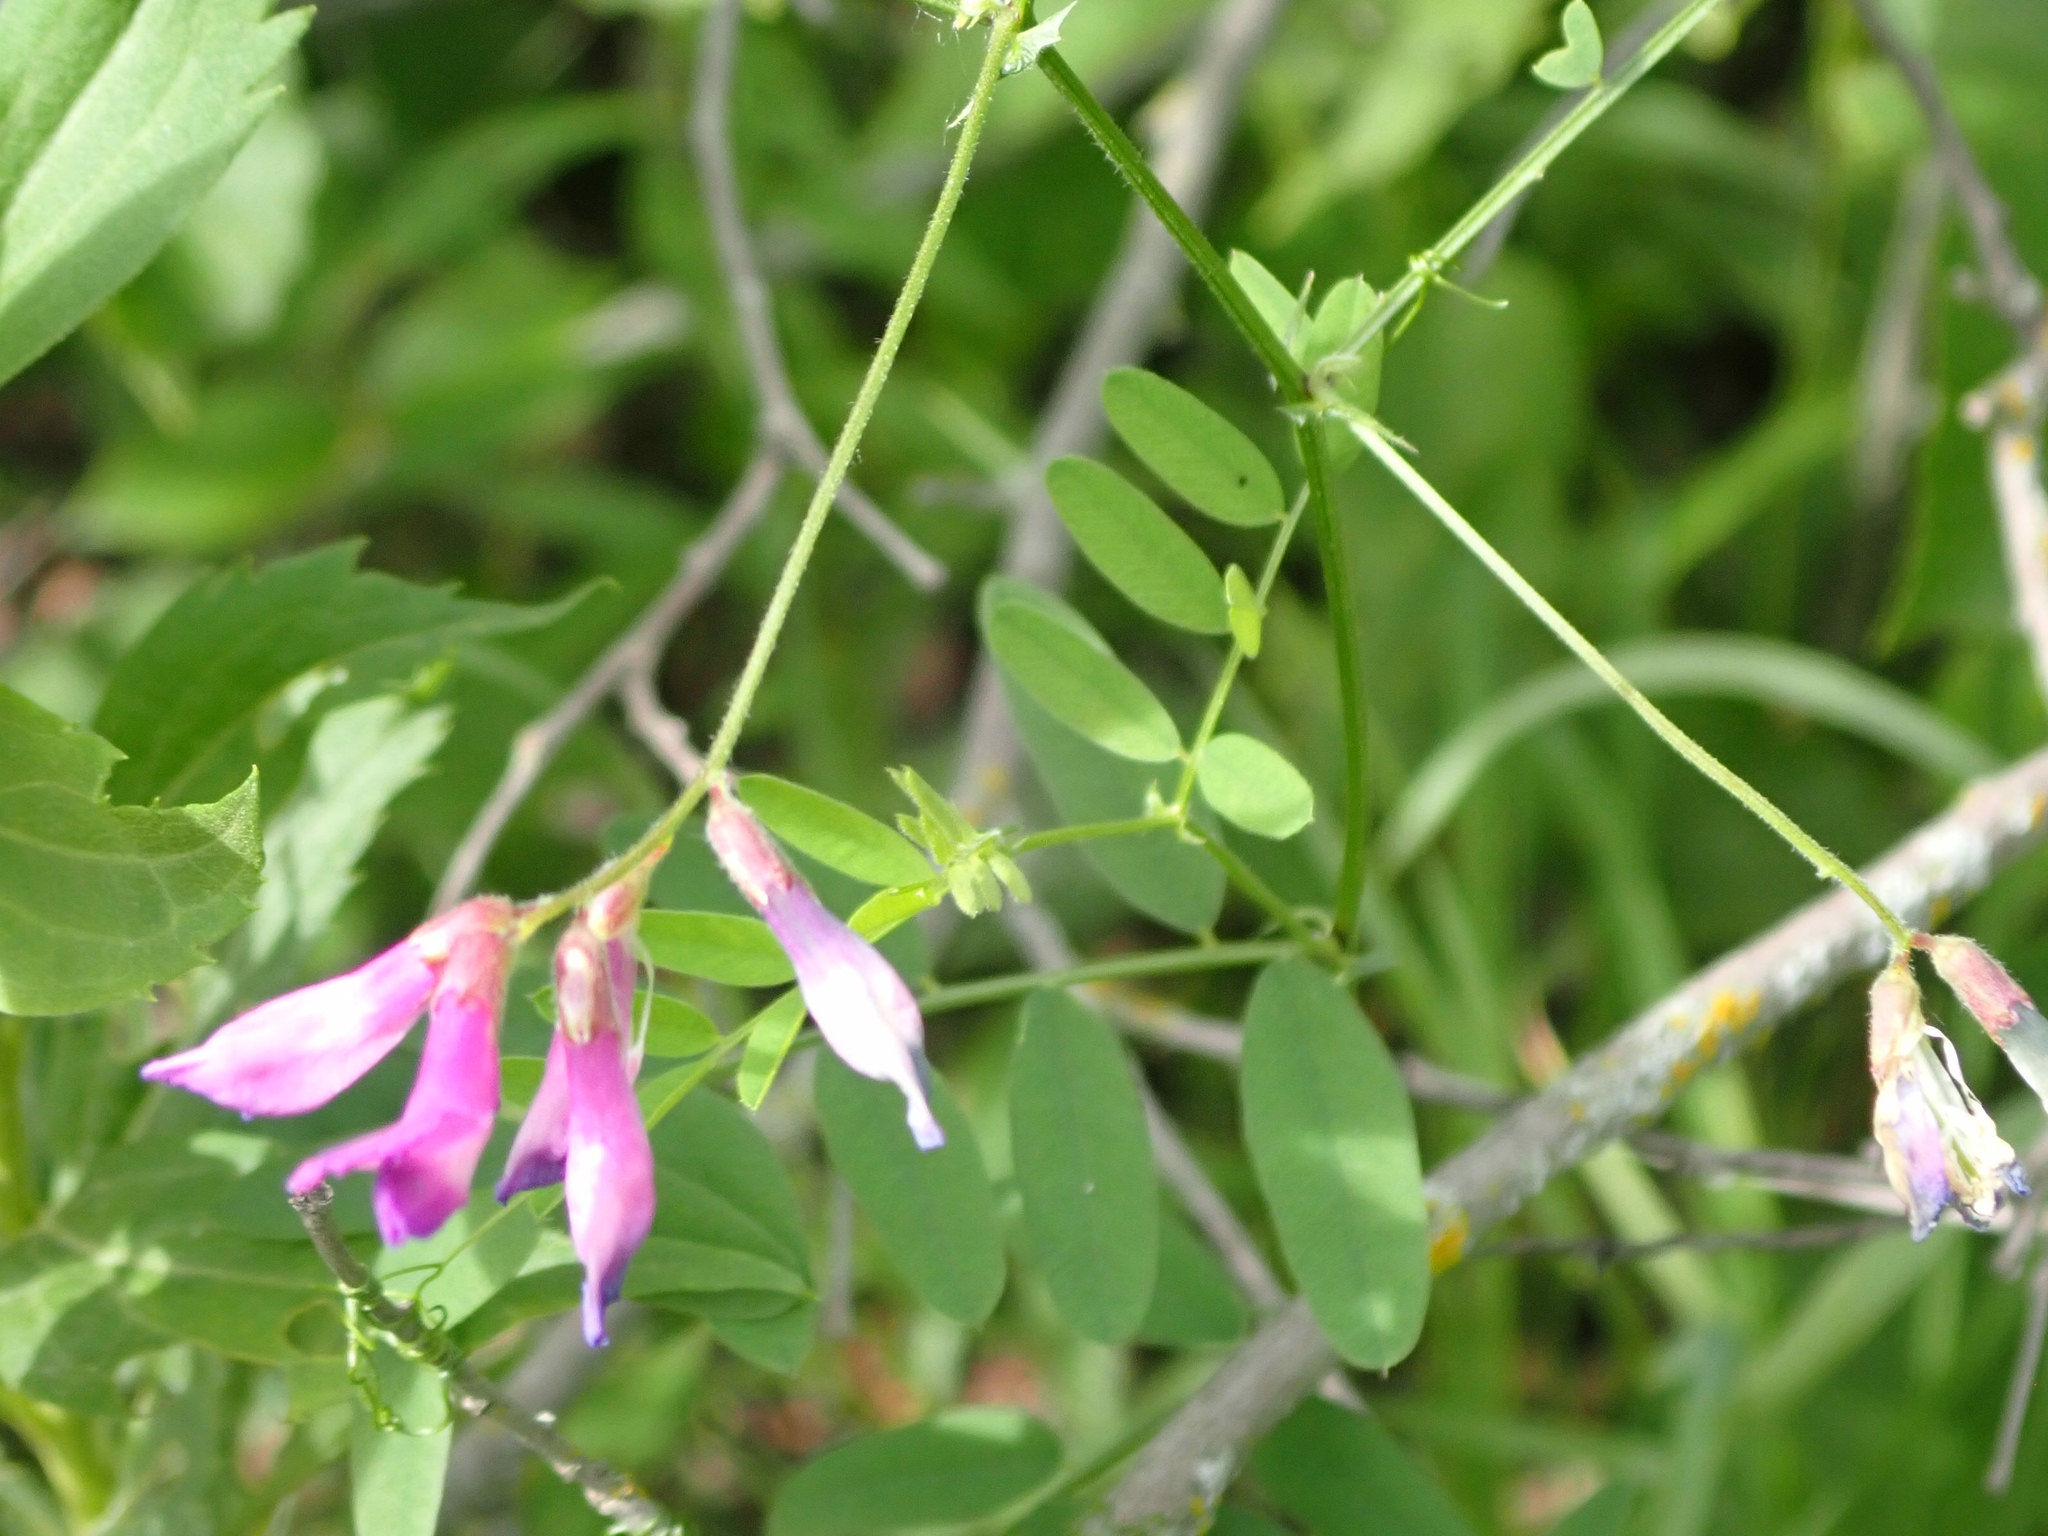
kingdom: Plantae
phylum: Tracheophyta
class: Magnoliopsida
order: Fabales
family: Fabaceae
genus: Vicia
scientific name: Vicia americana
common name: American vetch
